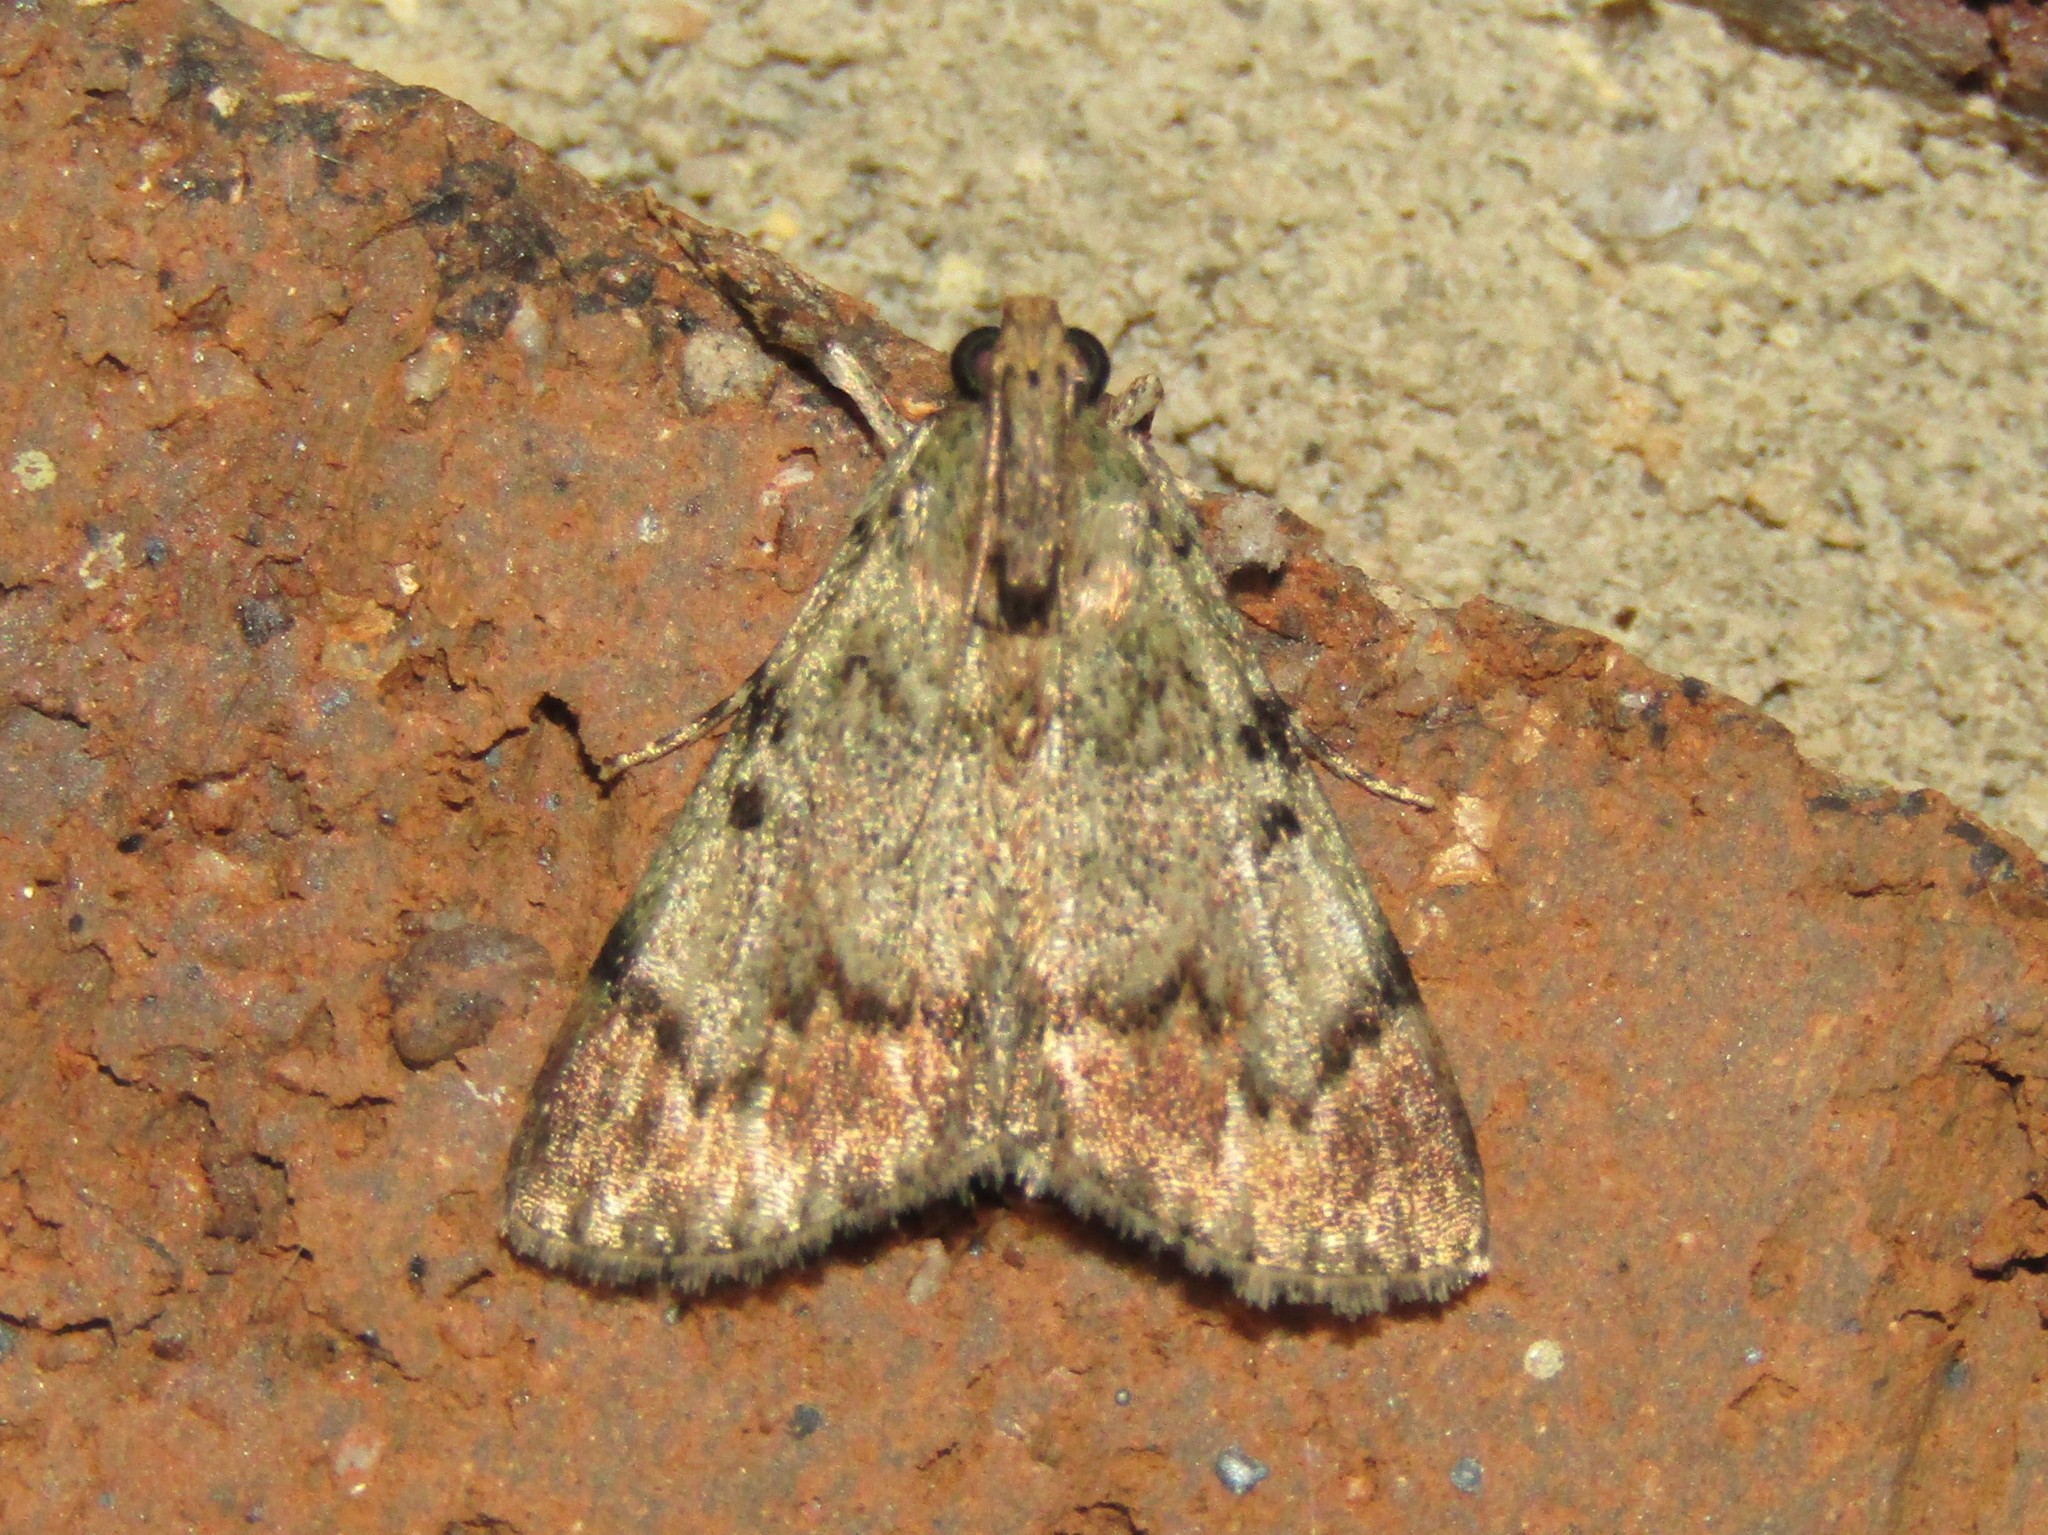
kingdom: Animalia
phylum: Arthropoda
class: Insecta
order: Lepidoptera
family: Pyralidae
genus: Epipaschia
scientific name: Epipaschia superatalis
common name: Dimorphic macalla moth
